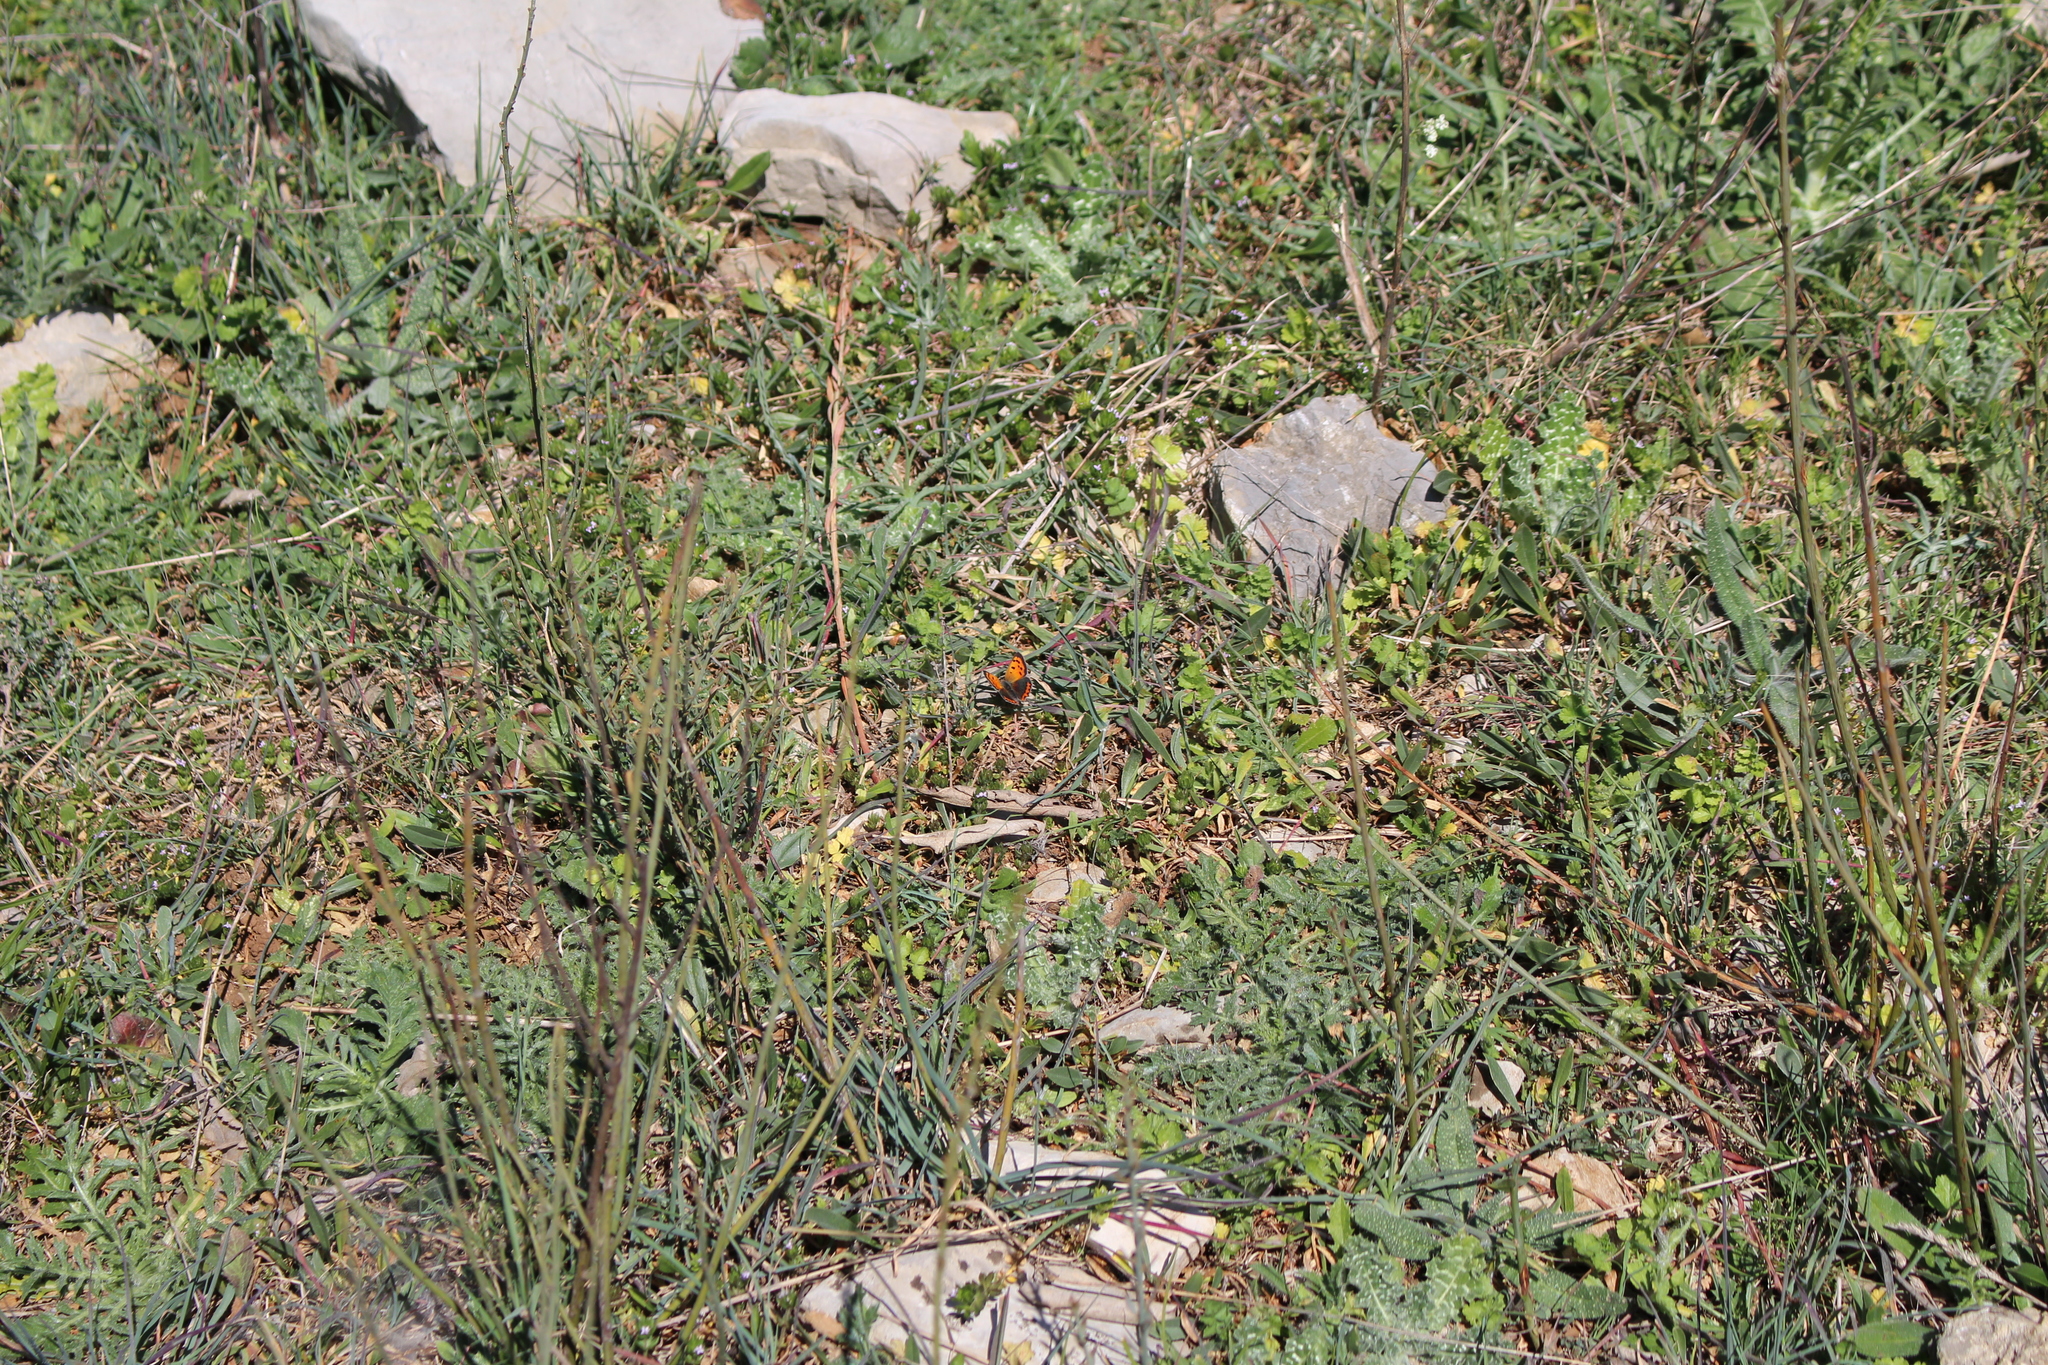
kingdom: Animalia
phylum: Arthropoda
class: Insecta
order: Lepidoptera
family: Lycaenidae
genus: Lycaena
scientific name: Lycaena phlaeas
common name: Small copper
